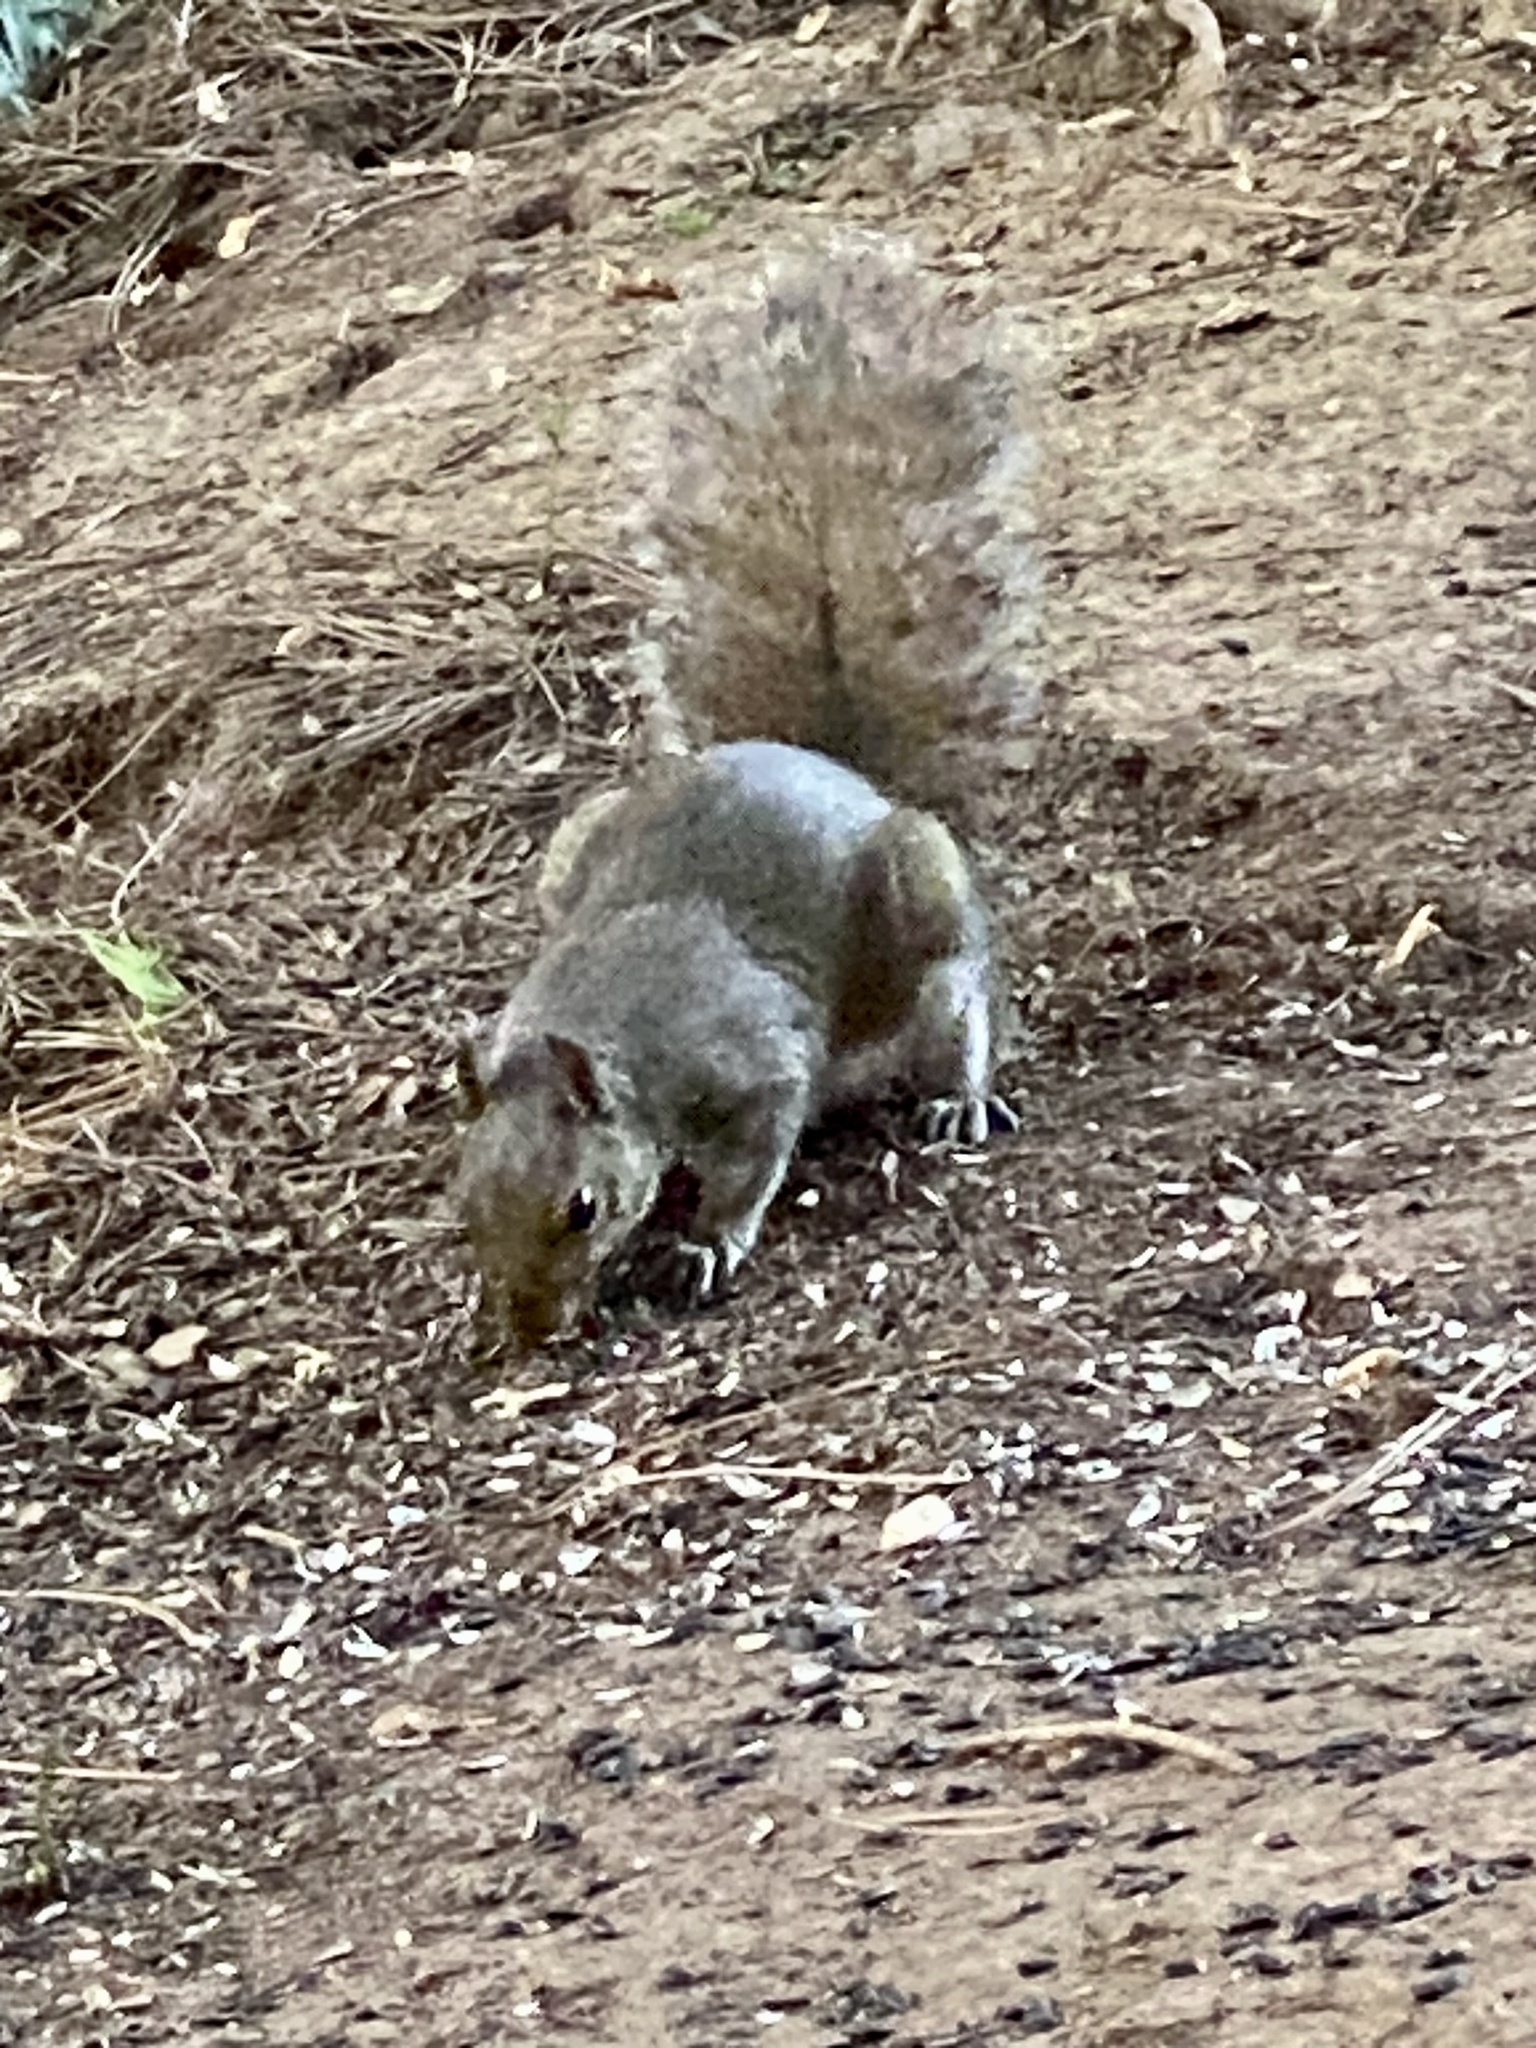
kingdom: Animalia
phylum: Chordata
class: Mammalia
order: Rodentia
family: Sciuridae
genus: Sciurus
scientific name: Sciurus carolinensis
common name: Eastern gray squirrel
